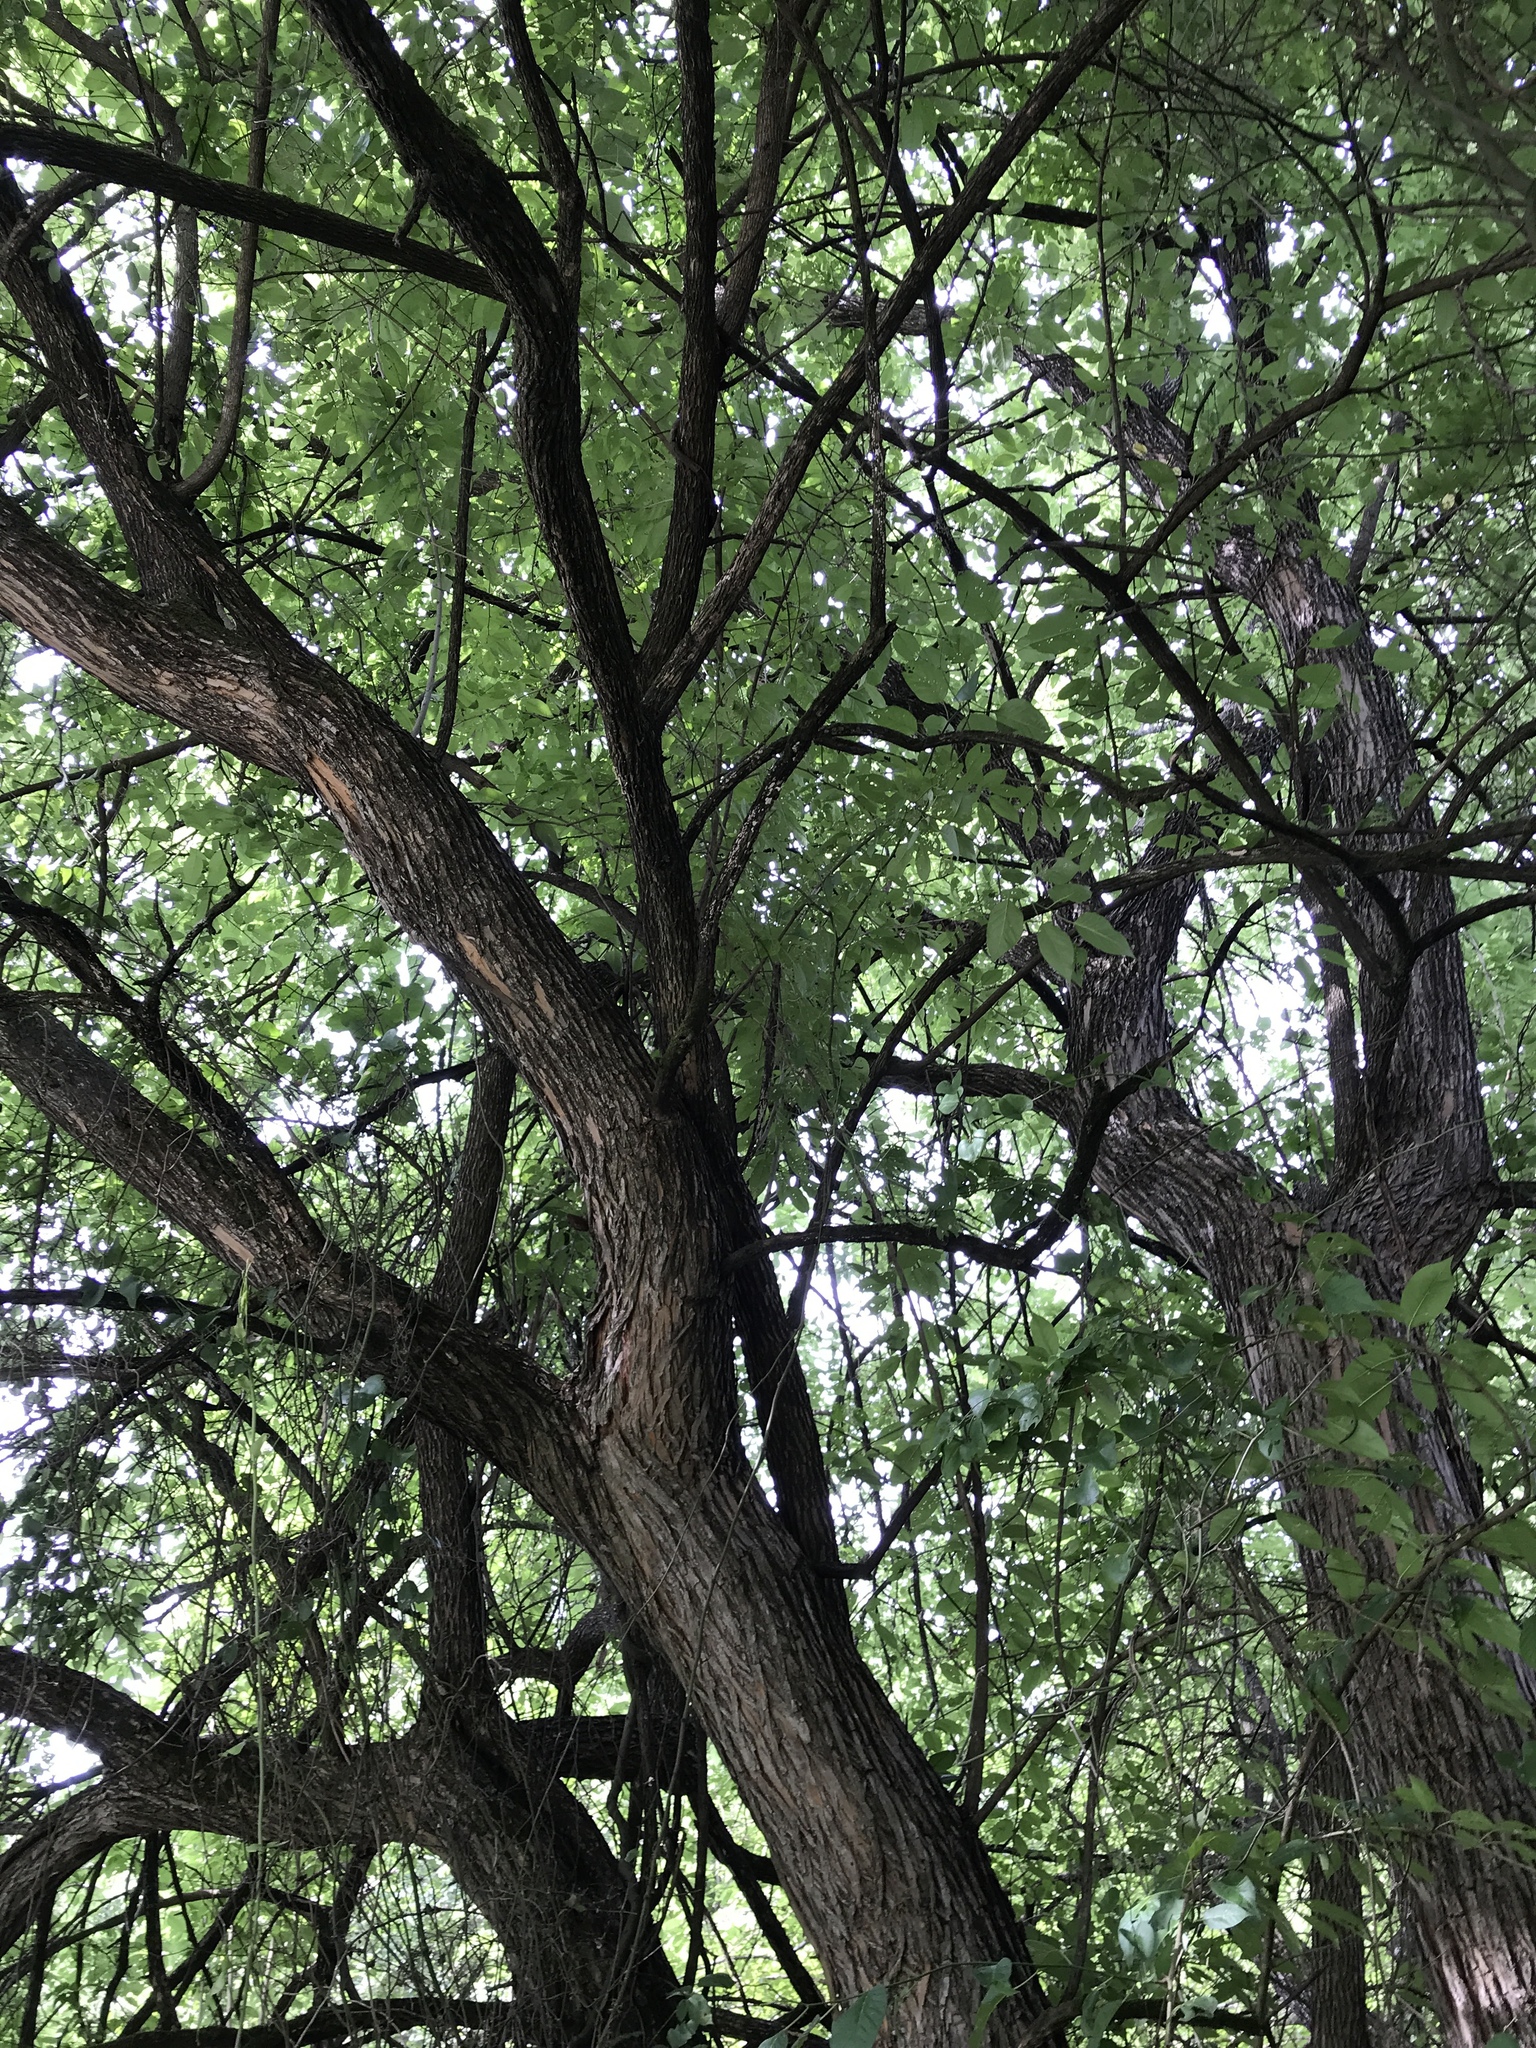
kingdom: Plantae
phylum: Tracheophyta
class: Magnoliopsida
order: Rosales
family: Moraceae
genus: Maclura
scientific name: Maclura pomifera
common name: Osage-orange
